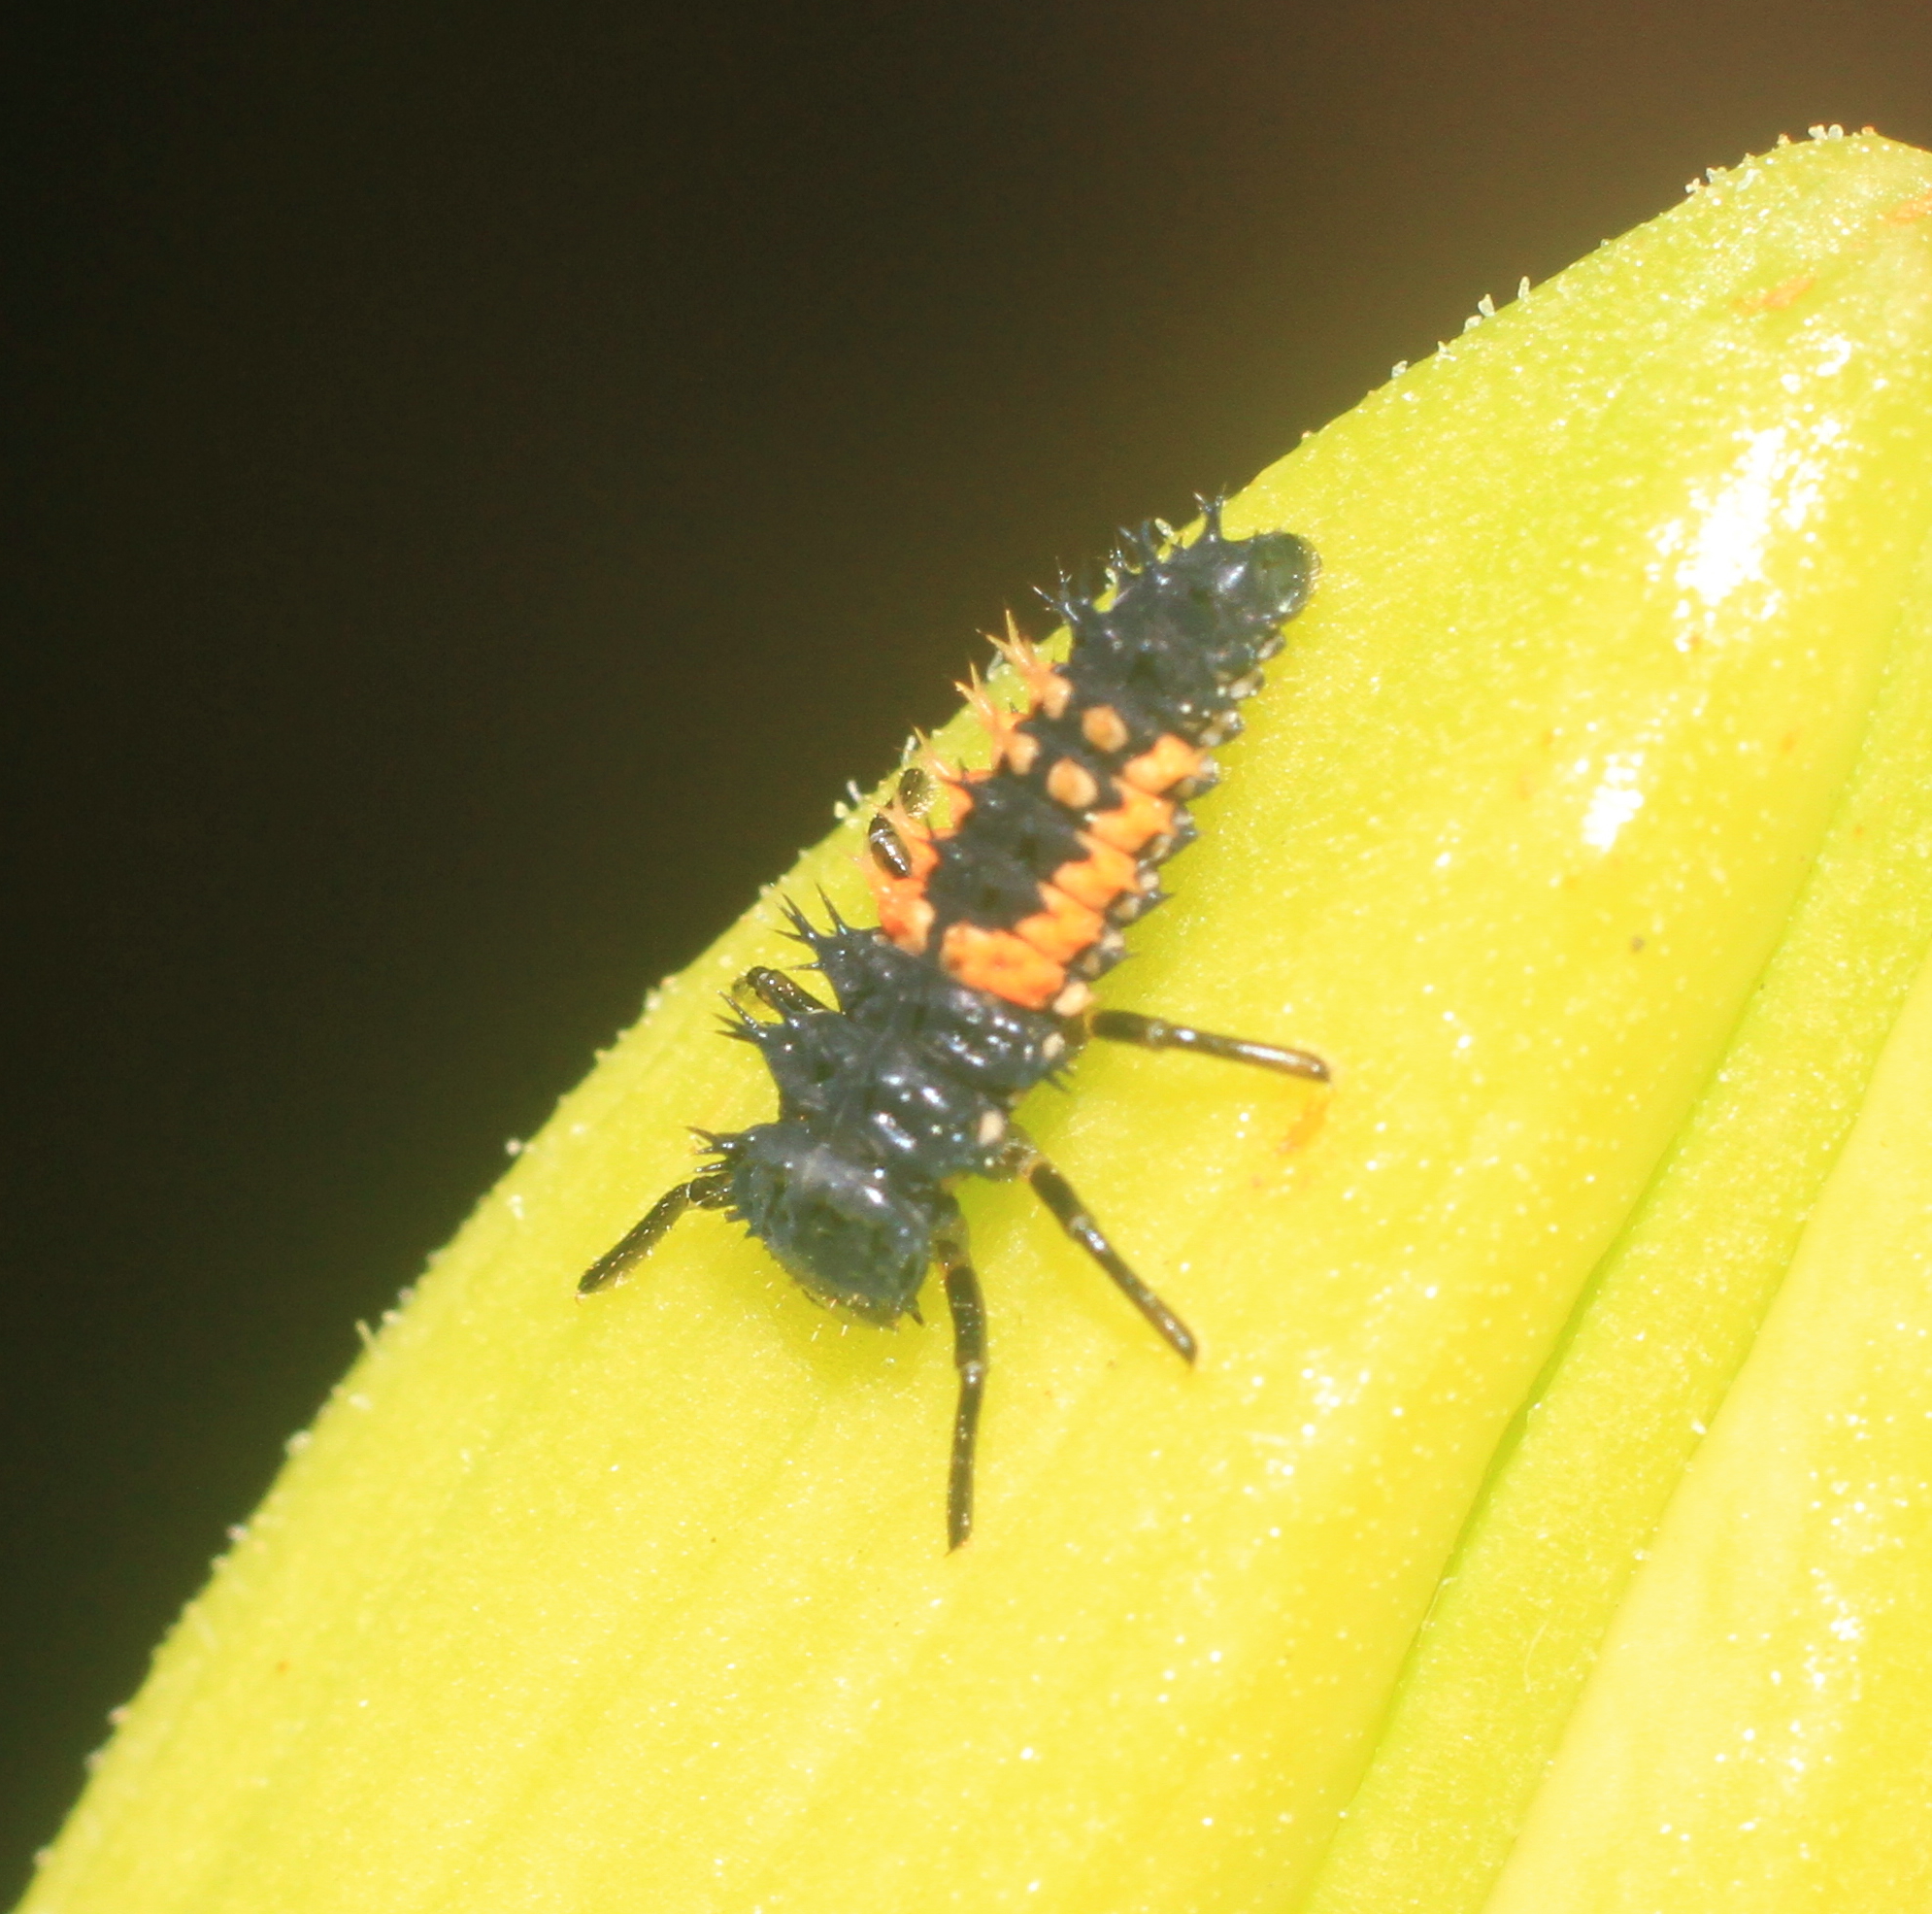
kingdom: Animalia
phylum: Arthropoda
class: Insecta
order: Coleoptera
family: Coccinellidae
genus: Harmonia
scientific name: Harmonia axyridis
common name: Harlequin ladybird
